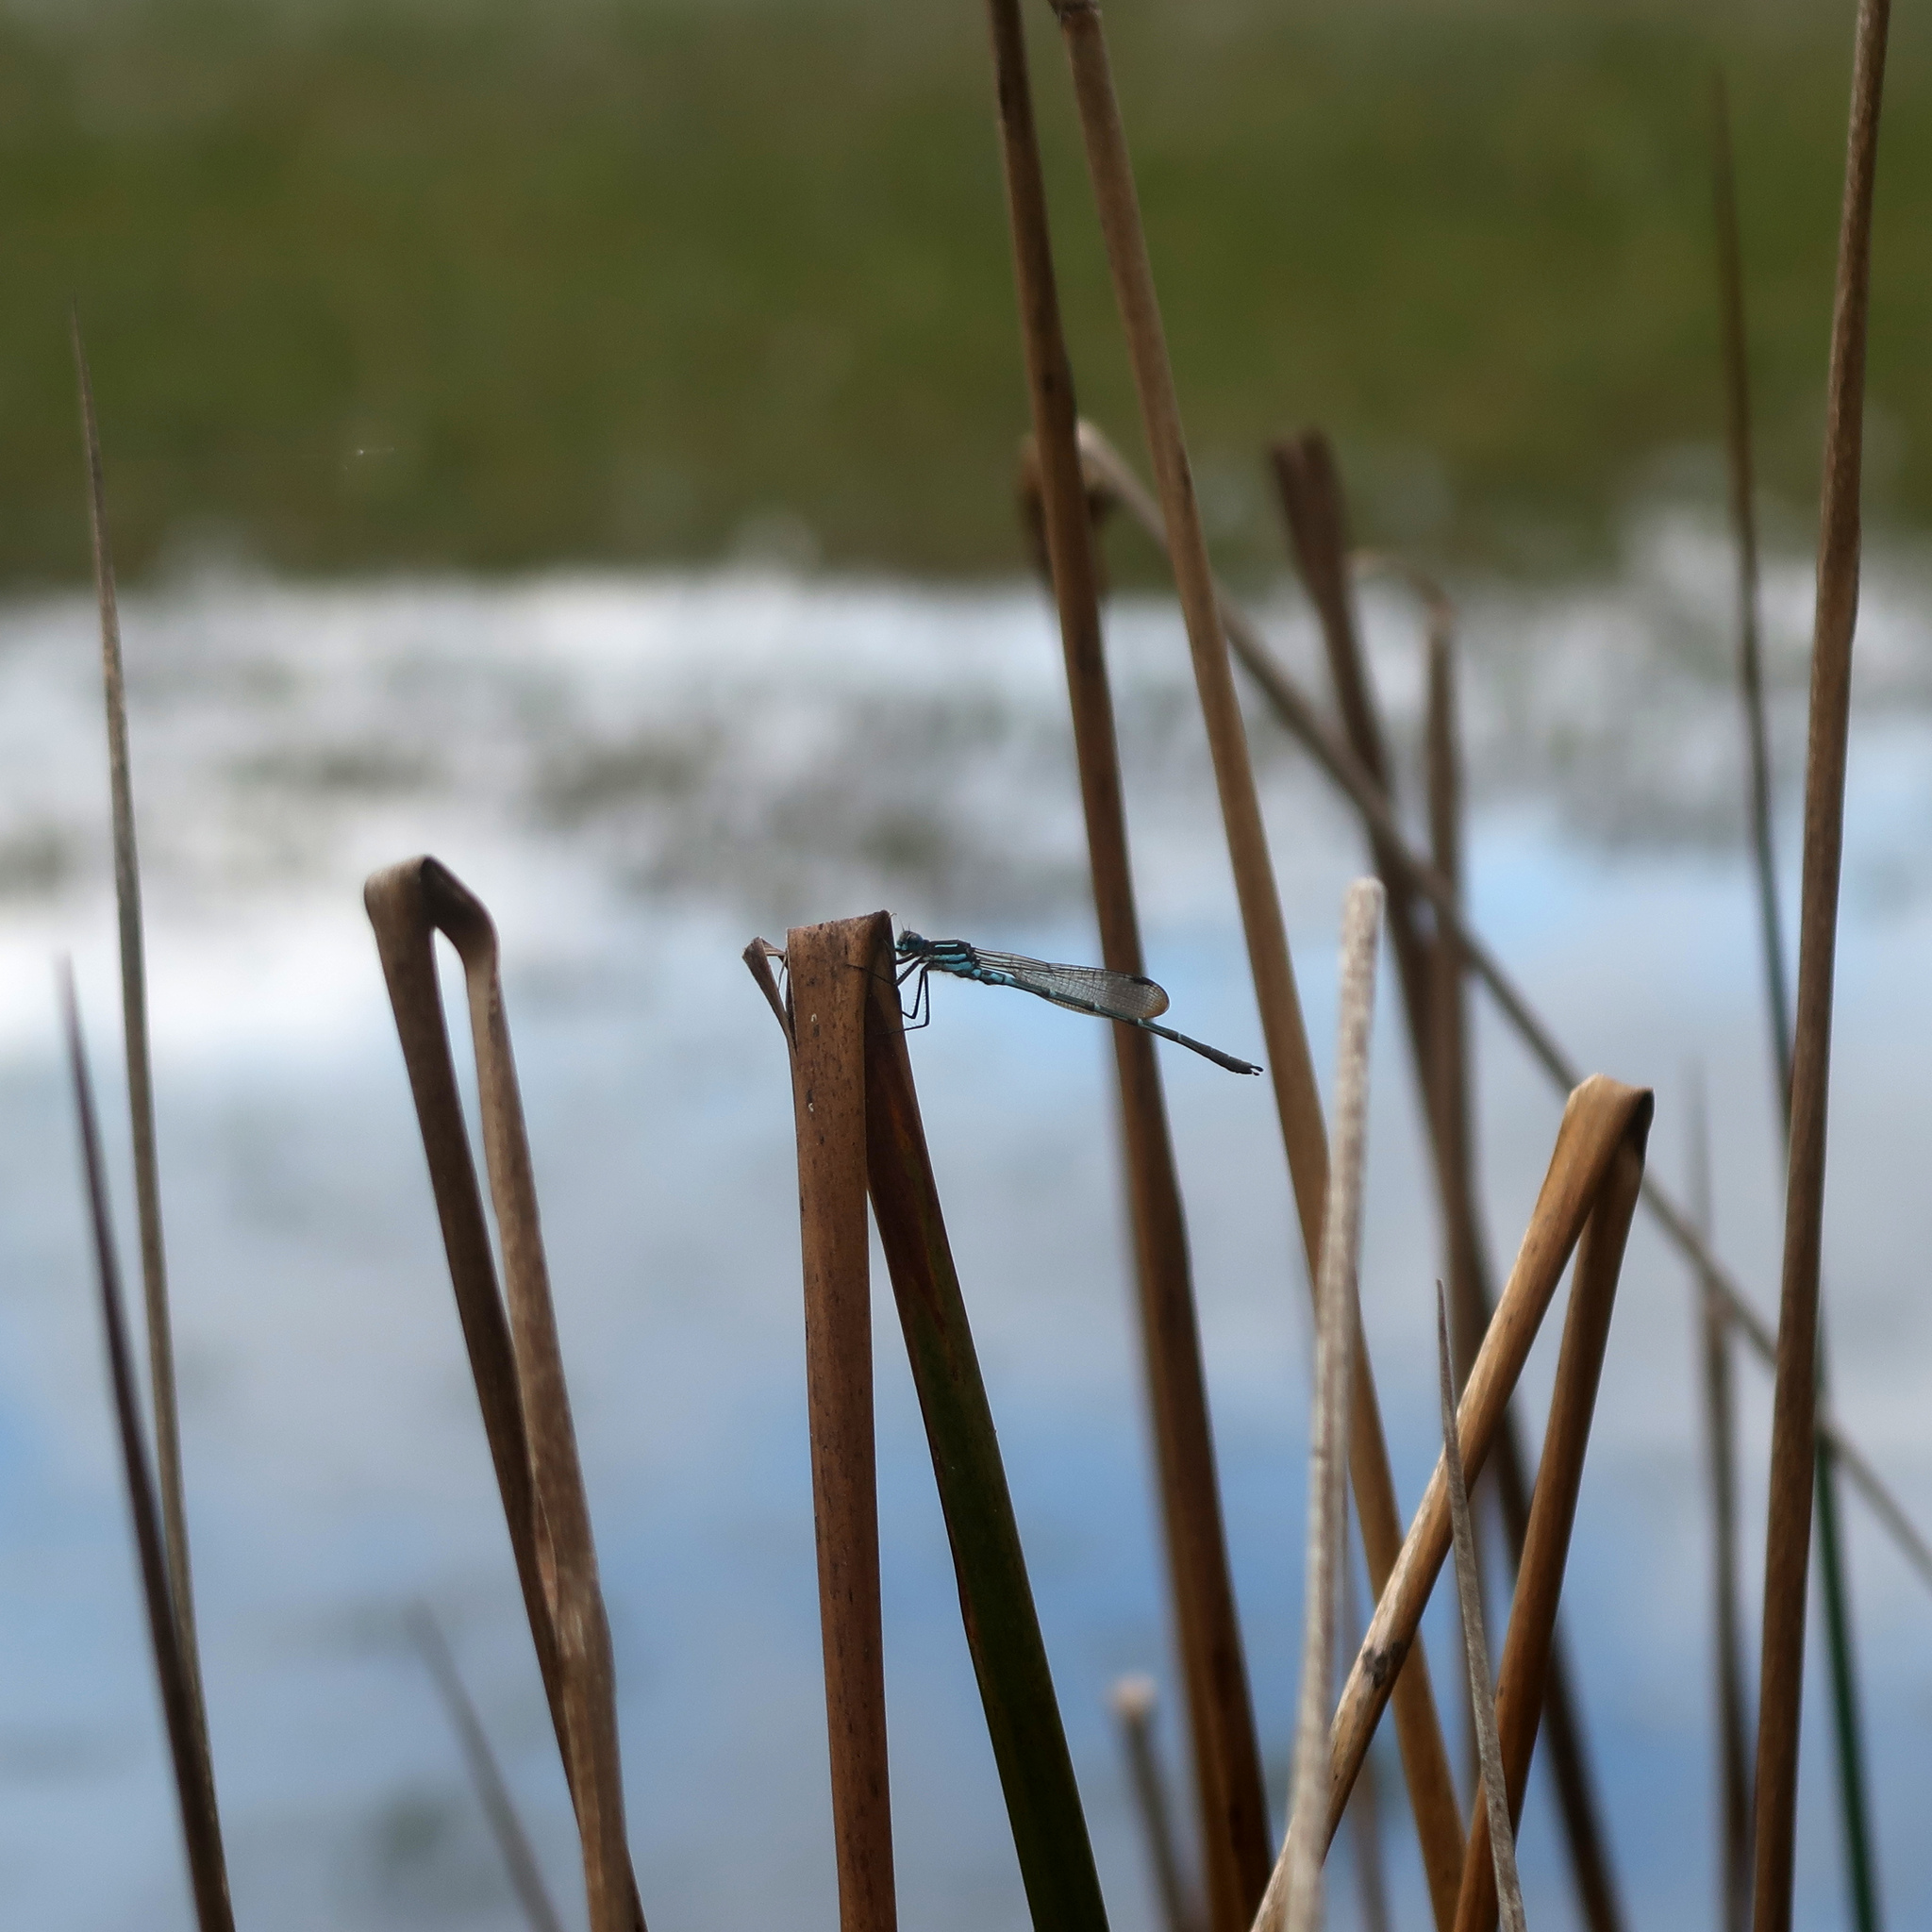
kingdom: Animalia
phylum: Arthropoda
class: Insecta
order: Odonata
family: Lestidae
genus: Austrolestes
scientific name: Austrolestes psyche
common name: Cup ringtail
